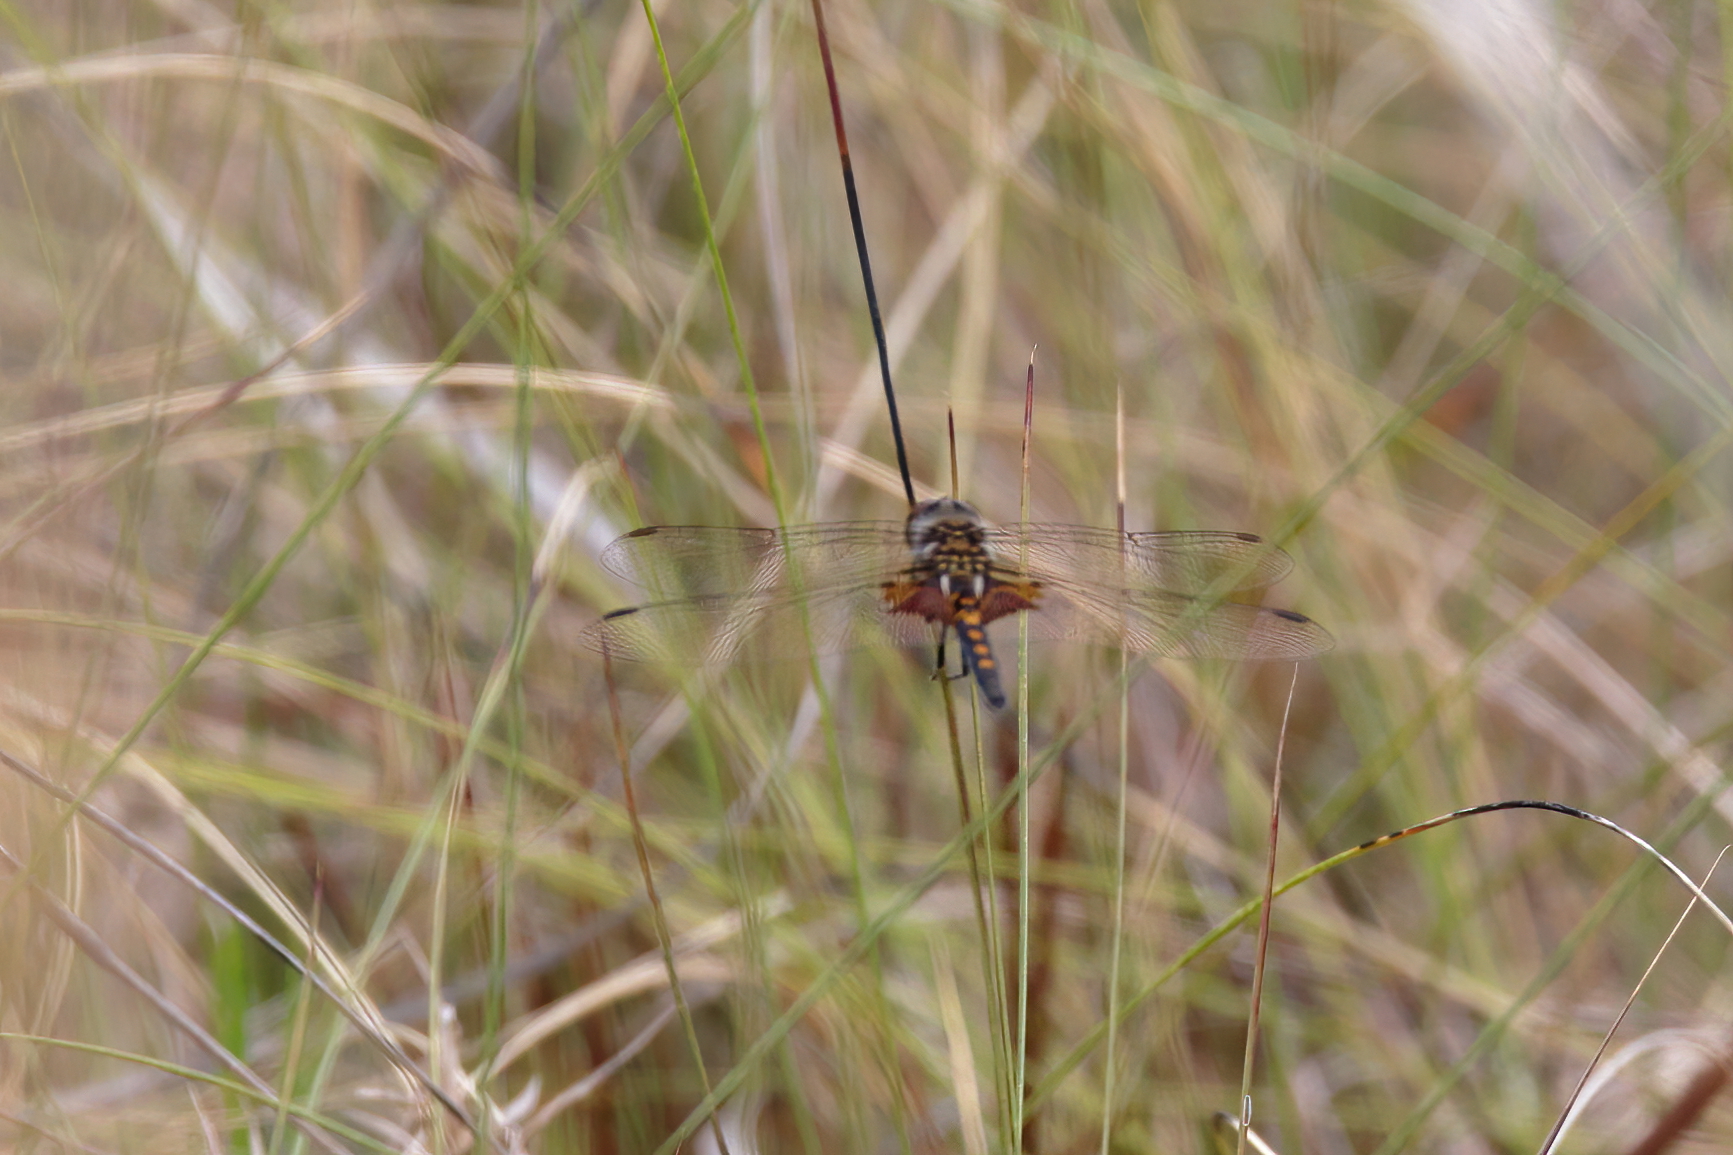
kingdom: Animalia
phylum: Arthropoda
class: Insecta
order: Odonata
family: Libellulidae
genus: Celithemis
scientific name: Celithemis ornata
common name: Ornate pennant
